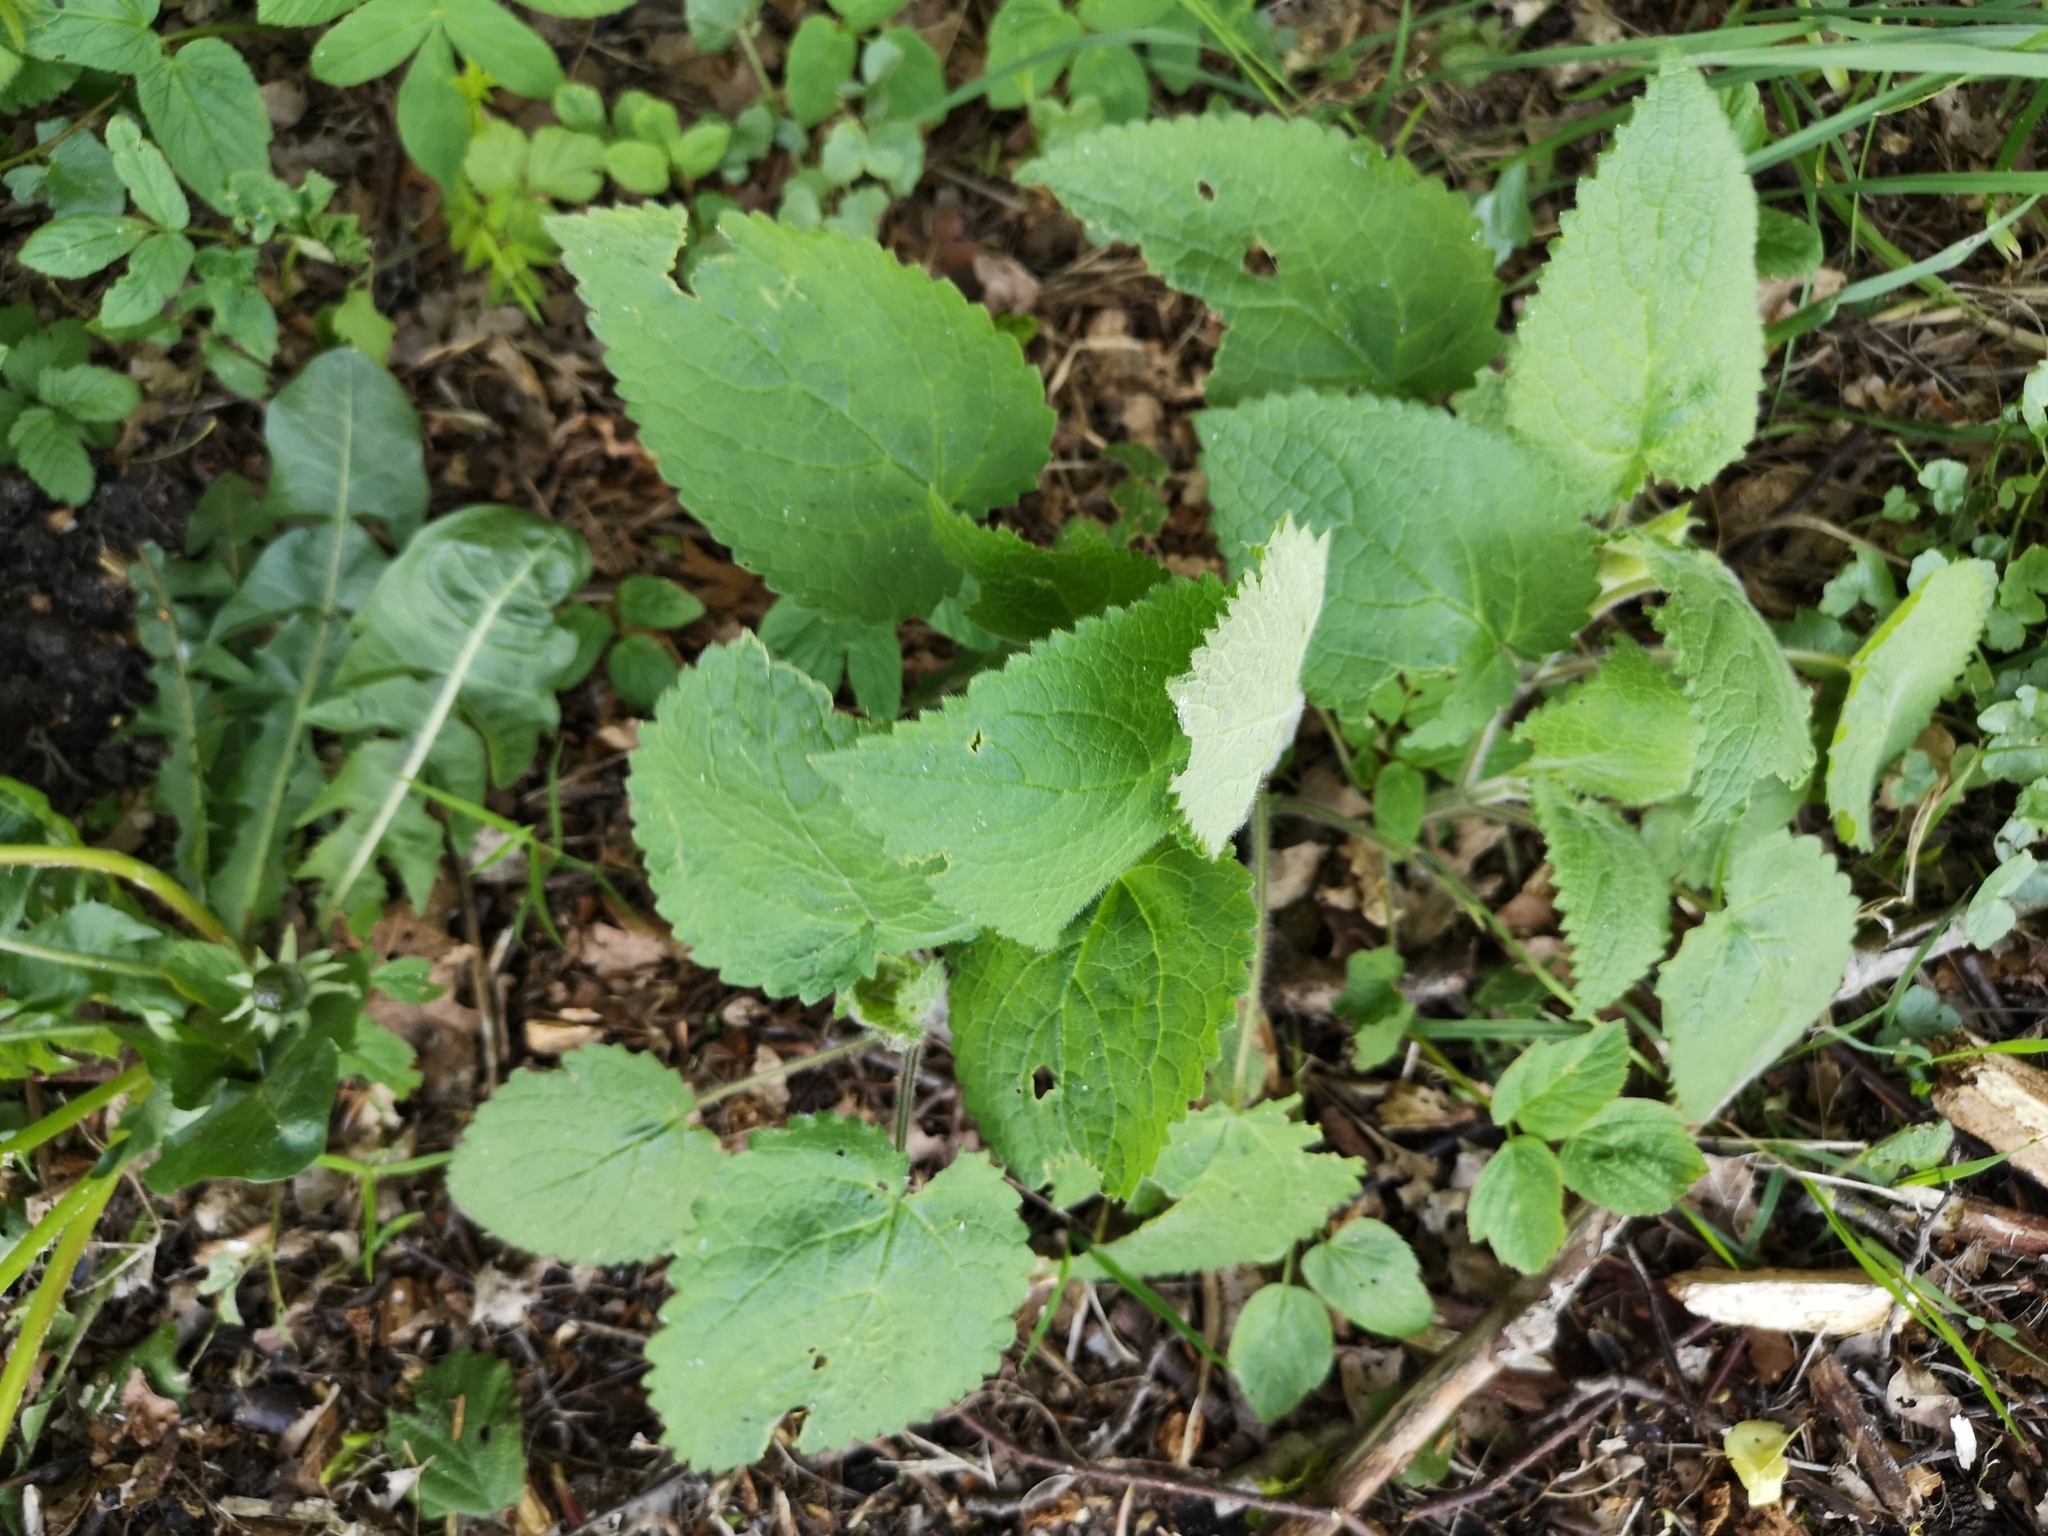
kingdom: Plantae
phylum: Tracheophyta
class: Magnoliopsida
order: Lamiales
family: Lamiaceae
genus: Stachys
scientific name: Stachys sylvatica
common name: Hedge woundwort
